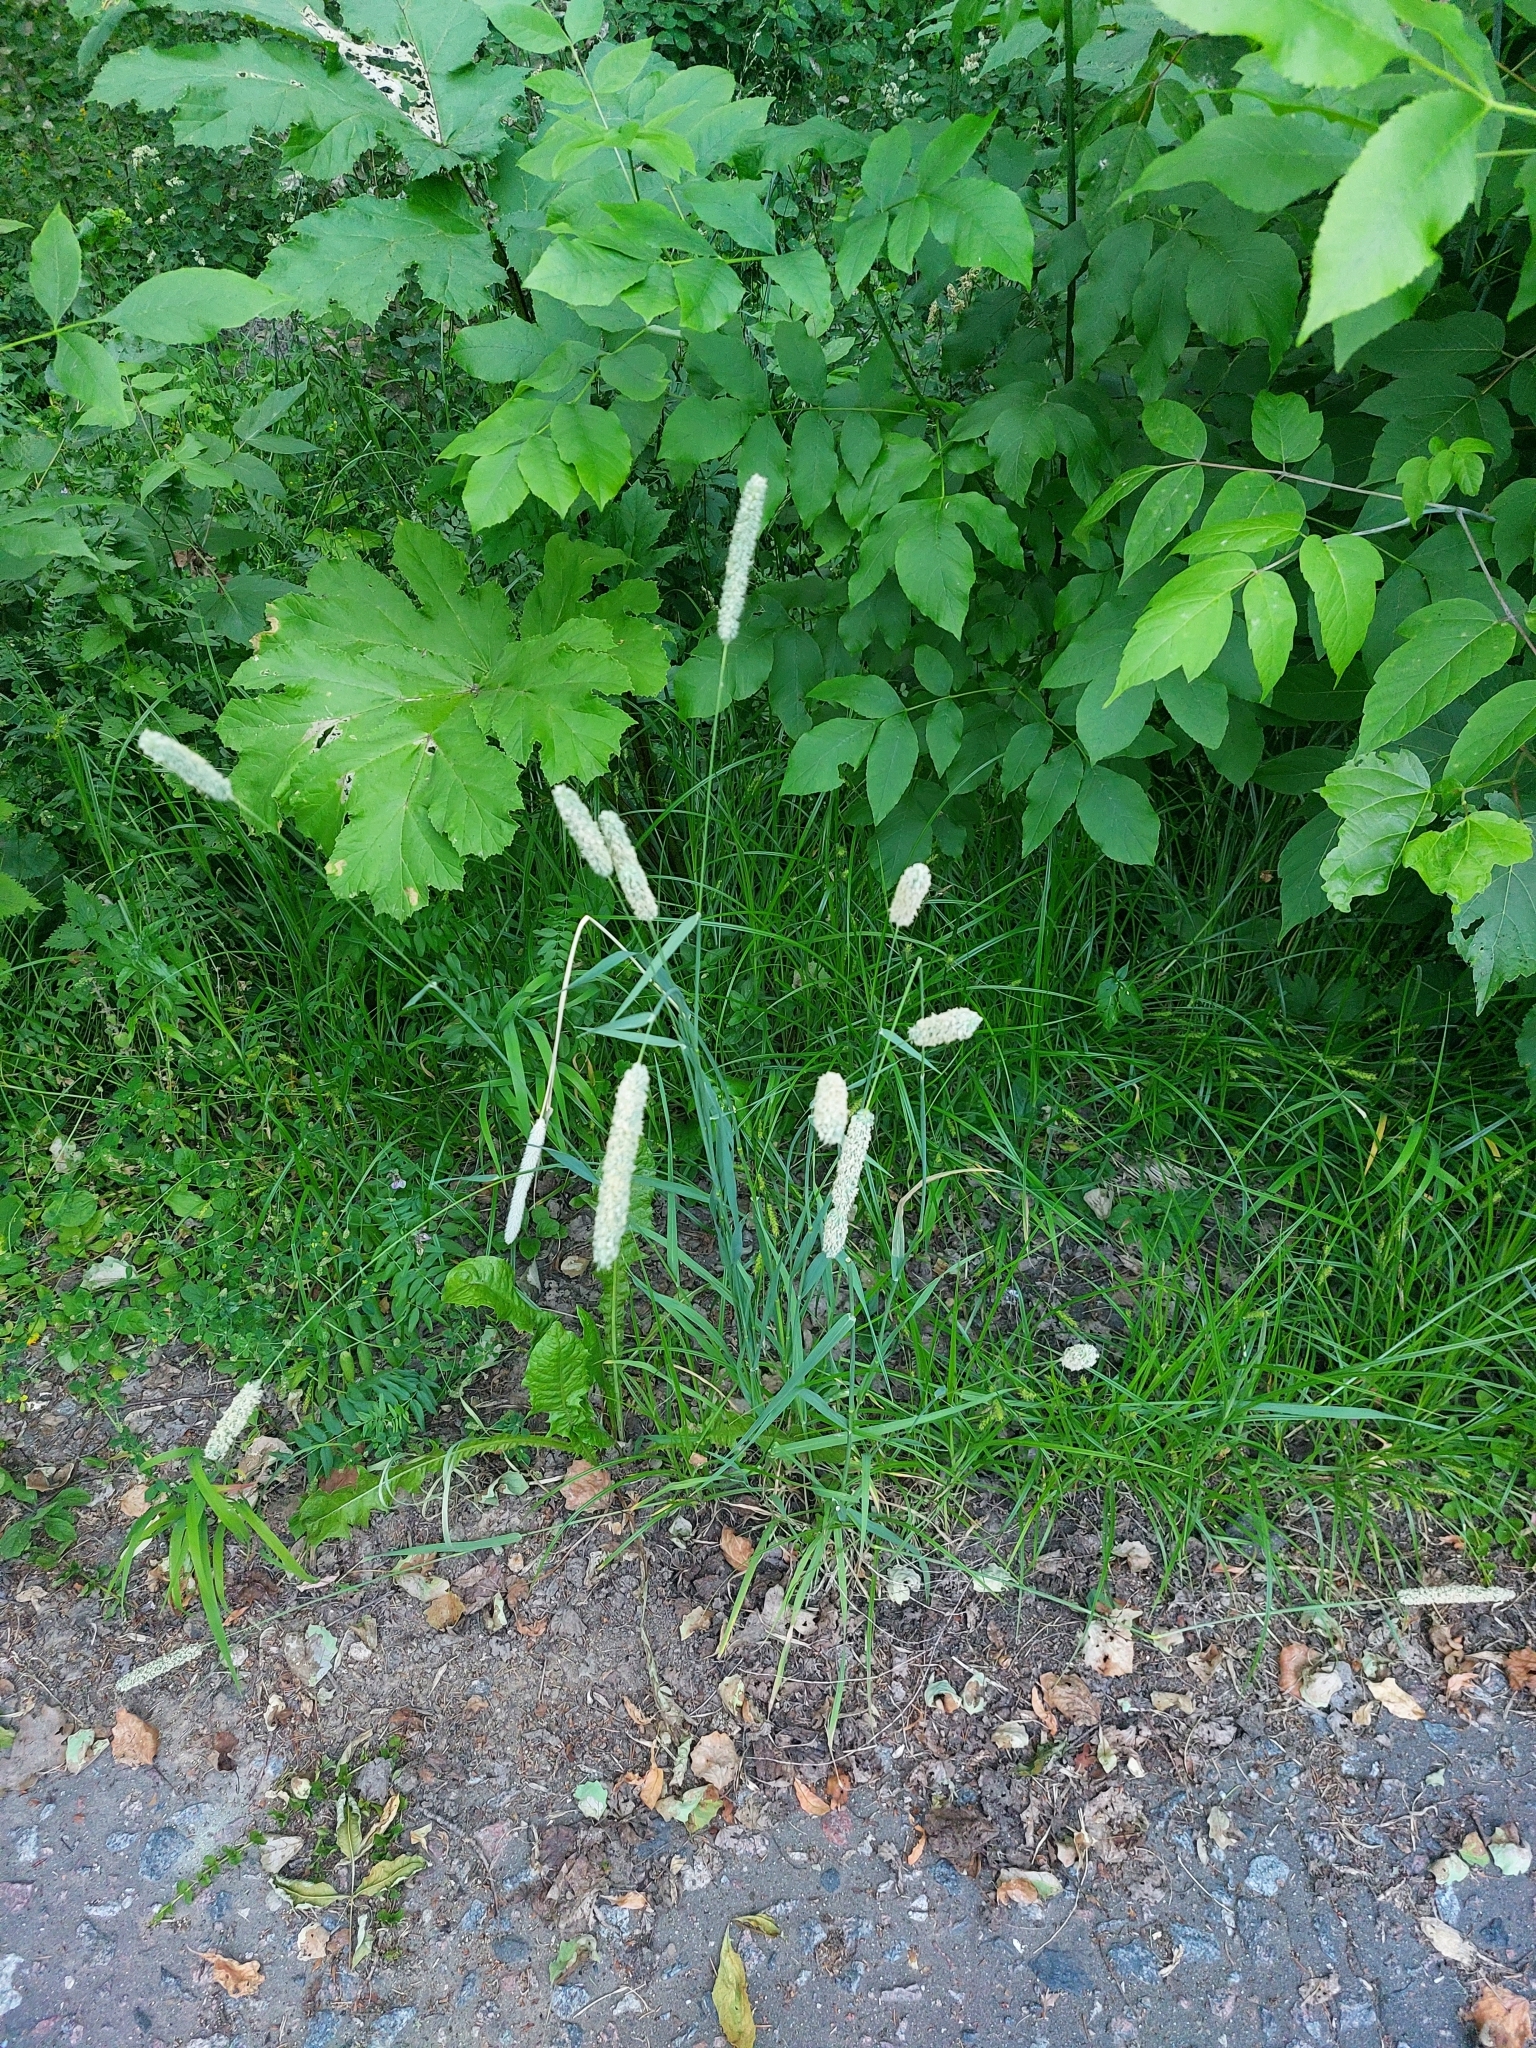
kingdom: Plantae
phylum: Tracheophyta
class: Liliopsida
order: Poales
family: Poaceae
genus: Phleum
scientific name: Phleum pratense
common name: Timothy grass
